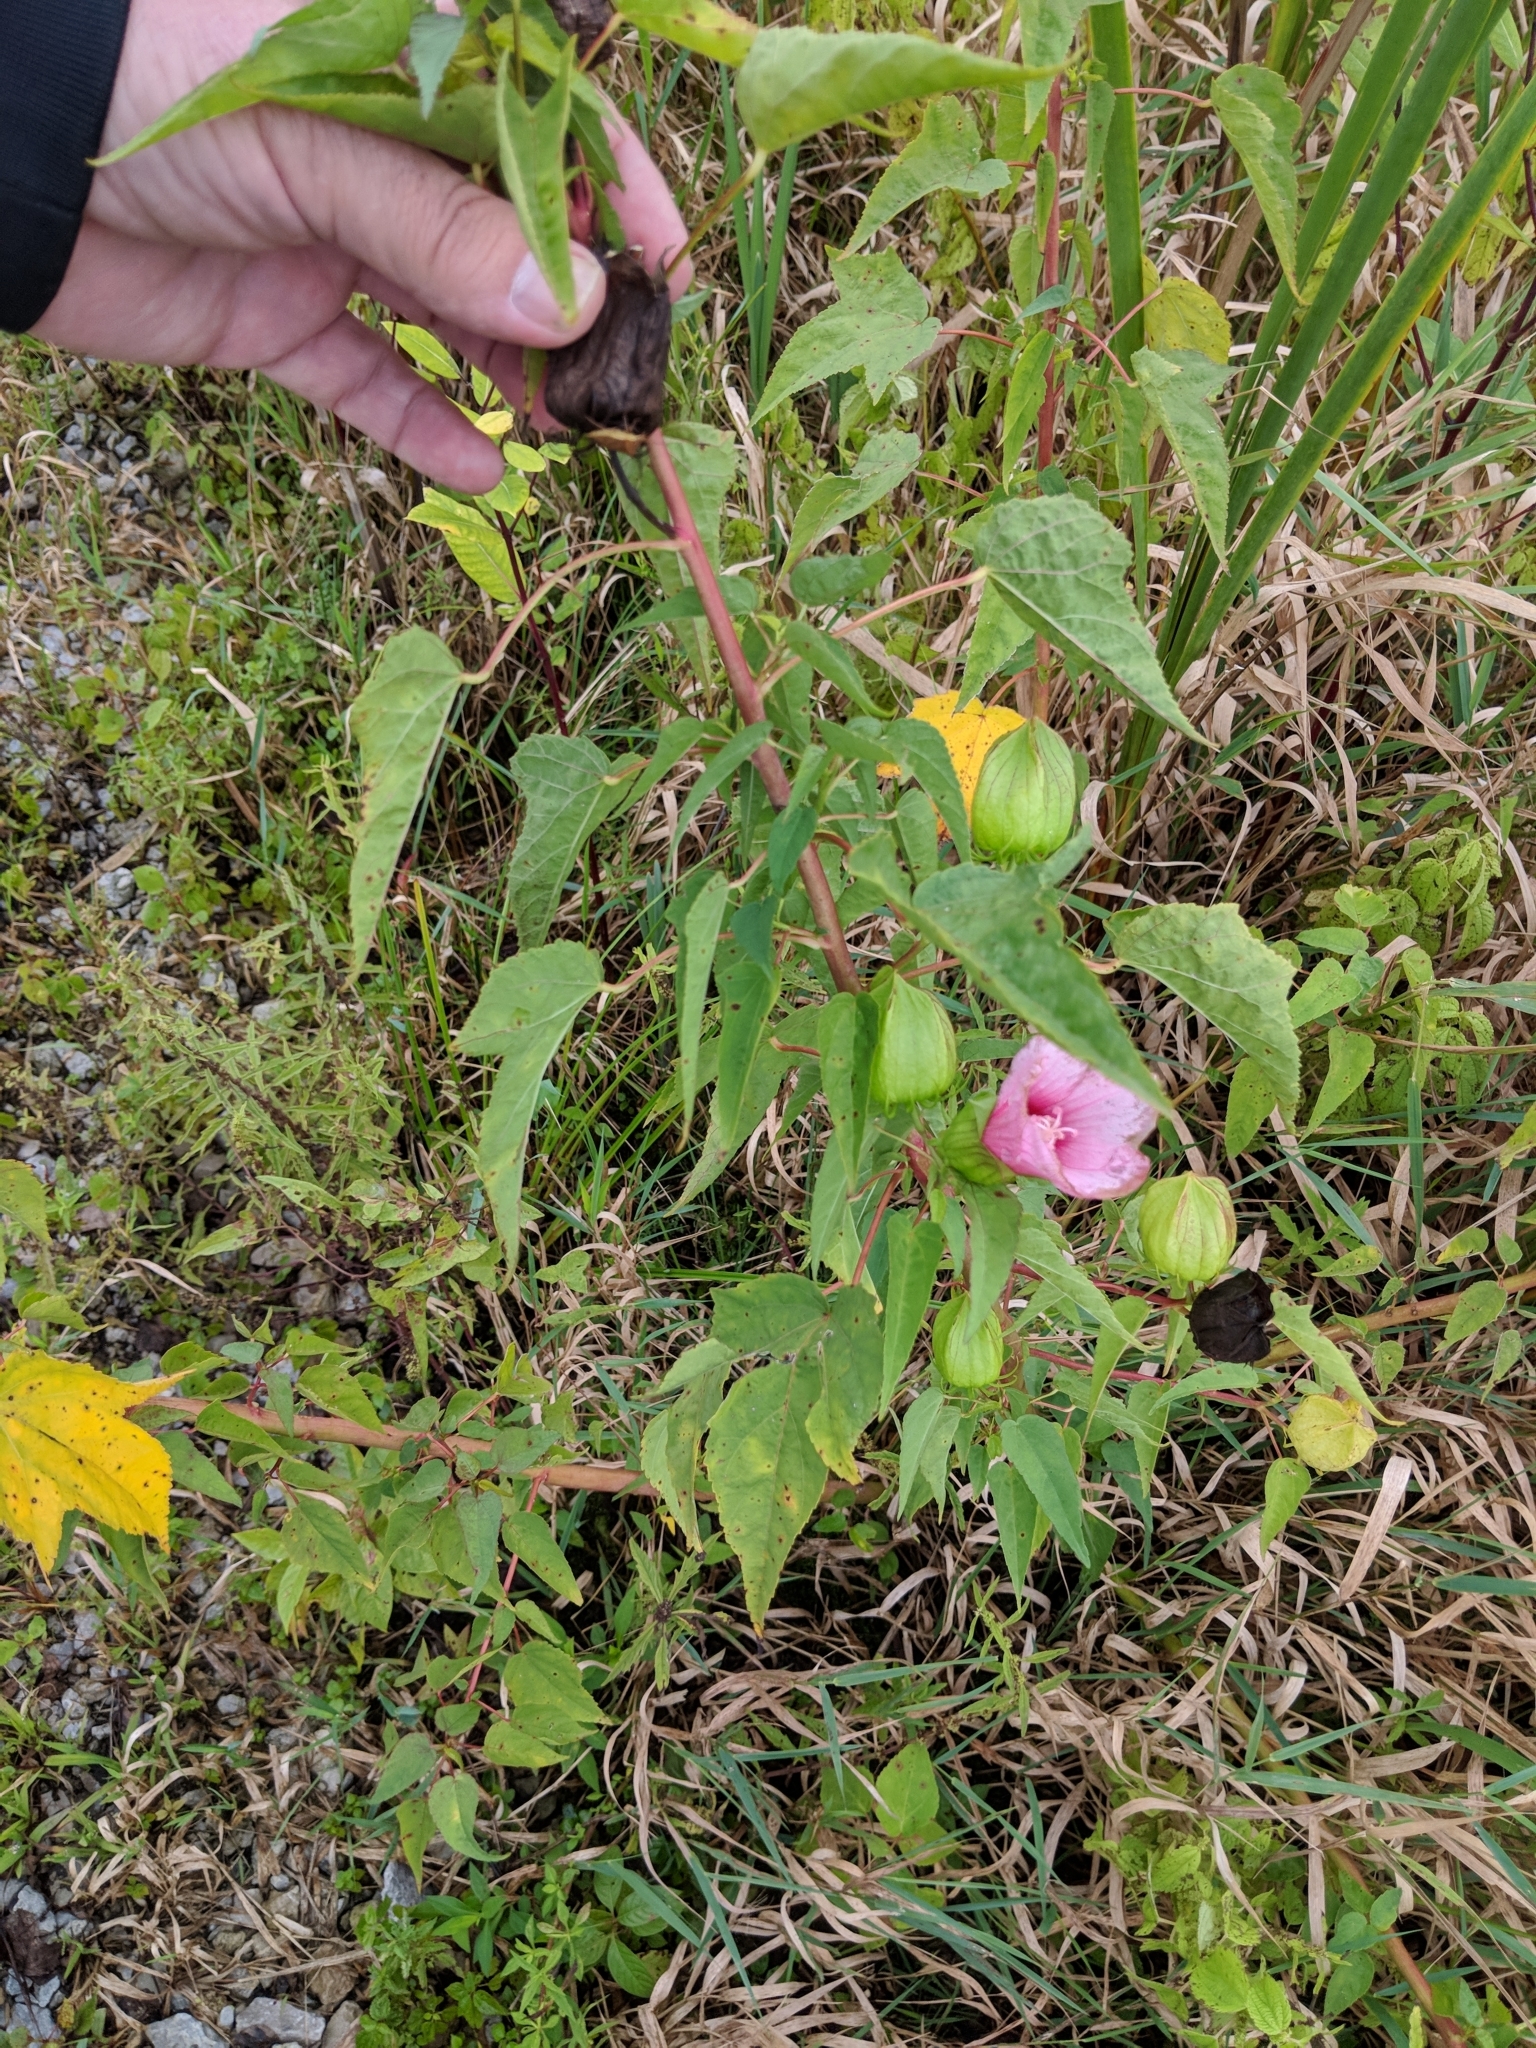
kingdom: Plantae
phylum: Tracheophyta
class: Magnoliopsida
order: Malvales
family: Malvaceae
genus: Hibiscus
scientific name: Hibiscus laevis
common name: Scarlet rose-mallow
